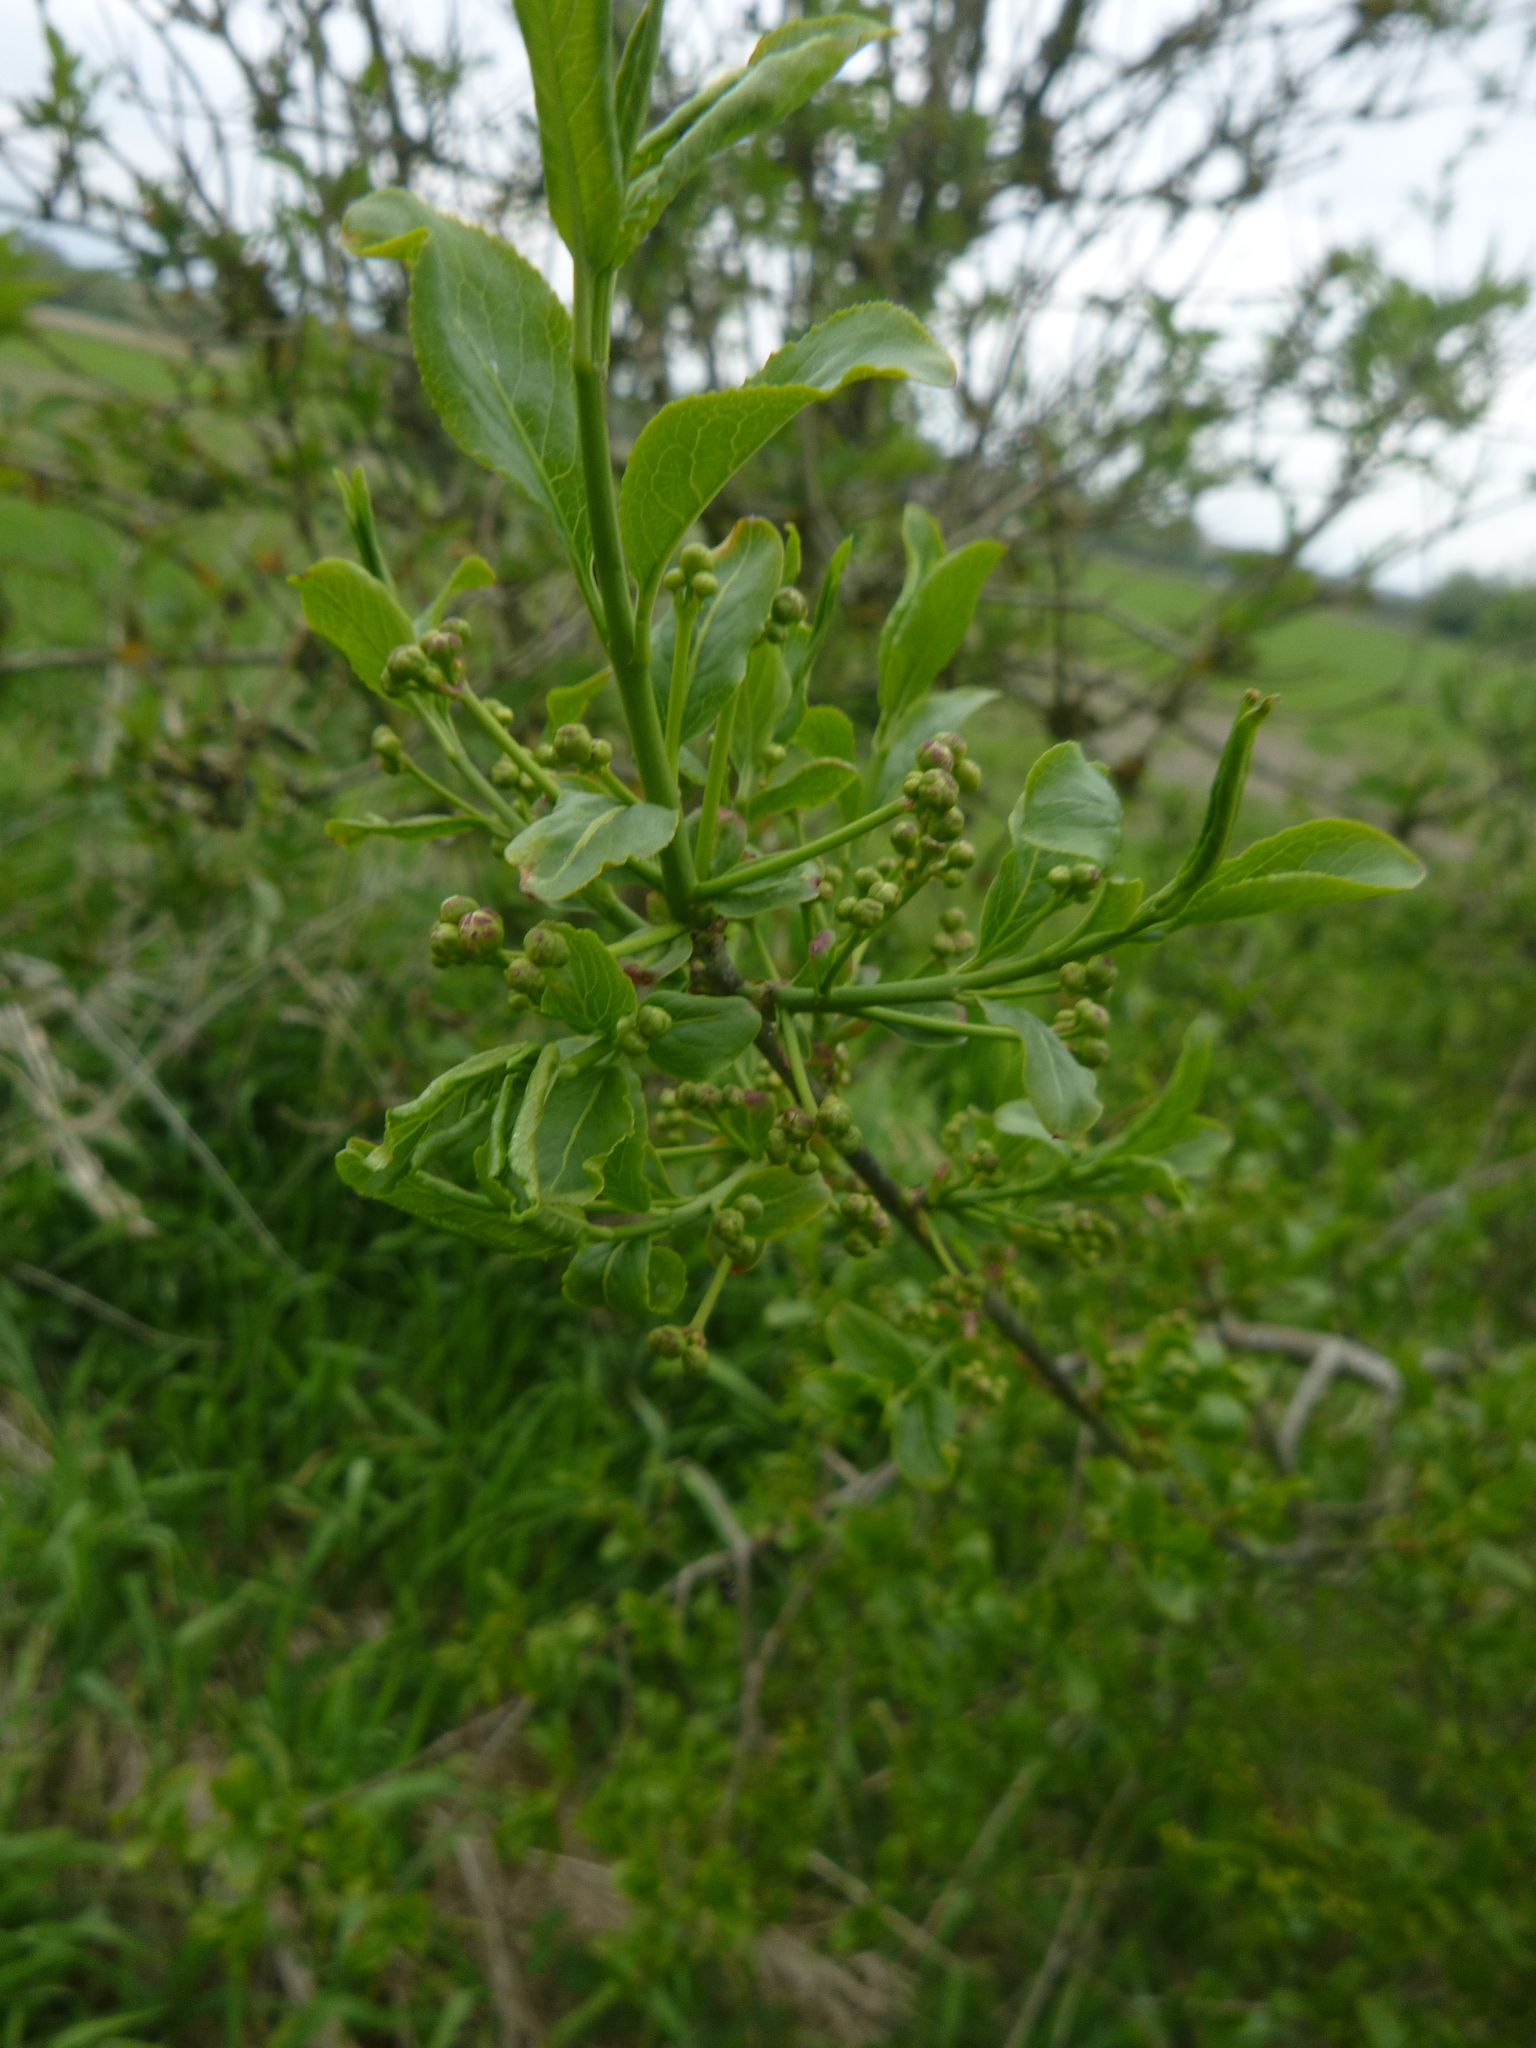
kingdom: Plantae
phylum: Tracheophyta
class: Magnoliopsida
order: Celastrales
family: Celastraceae
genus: Euonymus
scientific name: Euonymus europaeus
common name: Spindle
